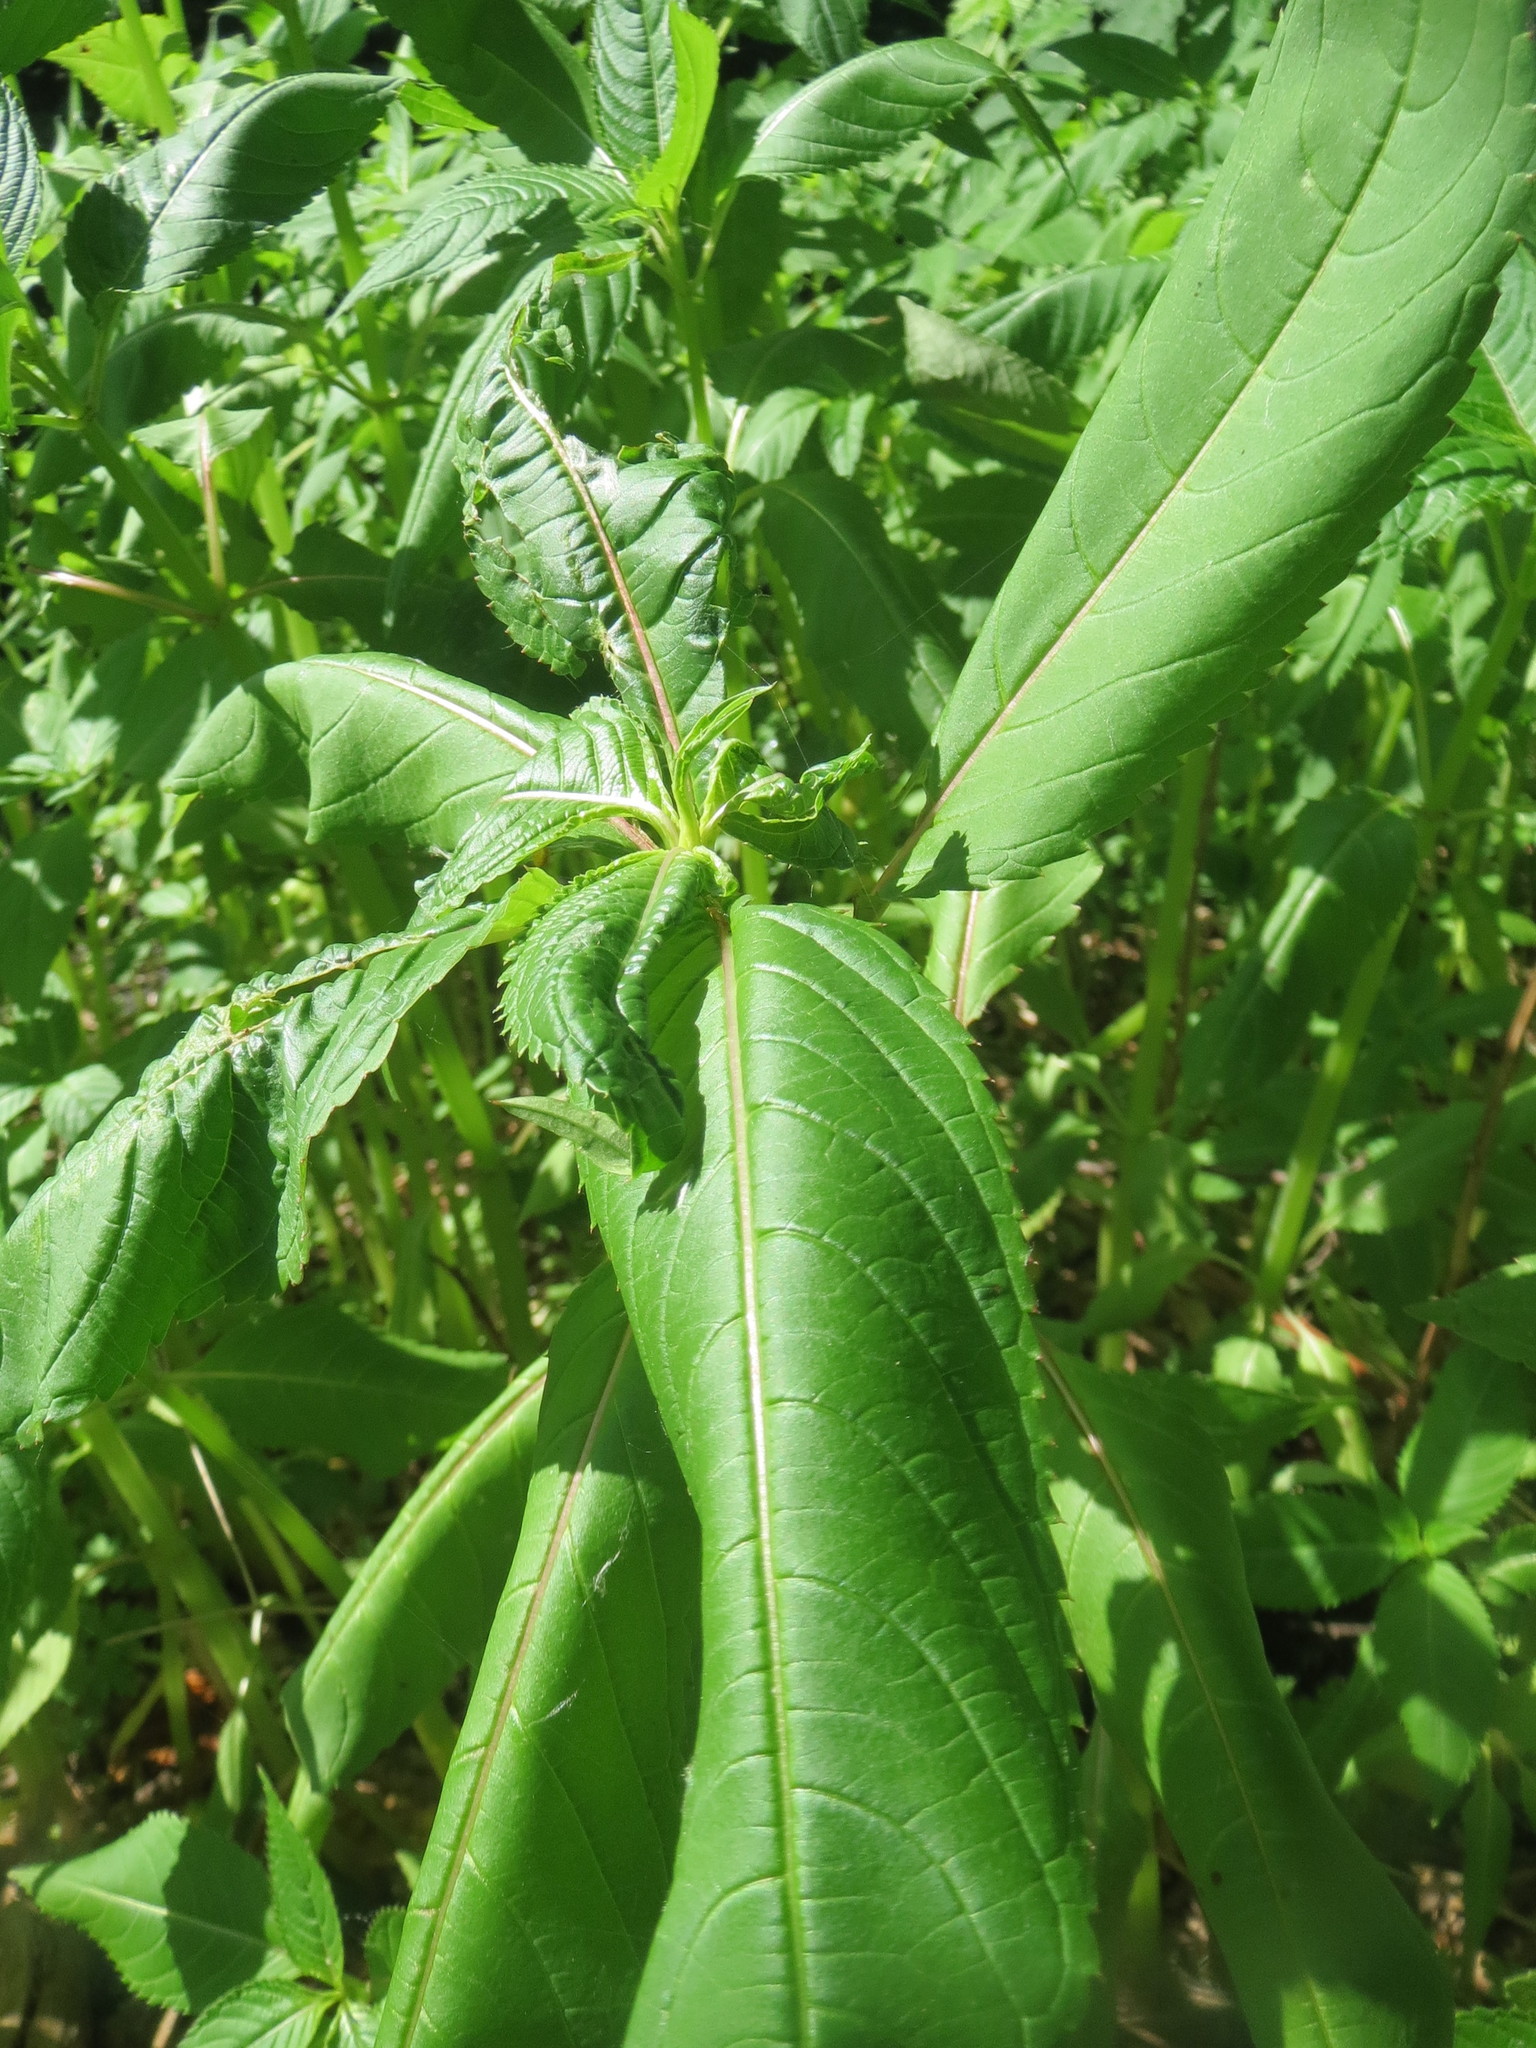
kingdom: Plantae
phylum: Tracheophyta
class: Magnoliopsida
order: Ericales
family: Balsaminaceae
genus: Impatiens
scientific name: Impatiens glandulifera
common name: Himalayan balsam
